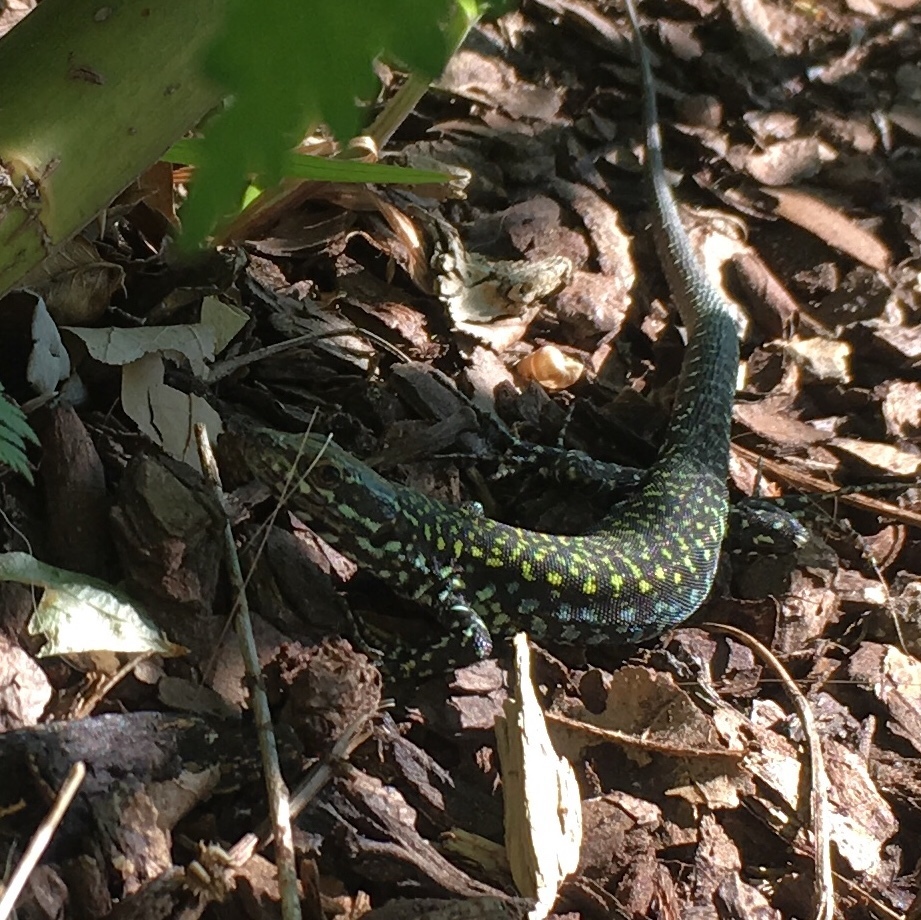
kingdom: Animalia
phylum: Chordata
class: Squamata
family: Lacertidae
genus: Podarcis
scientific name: Podarcis muralis
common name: Common wall lizard
